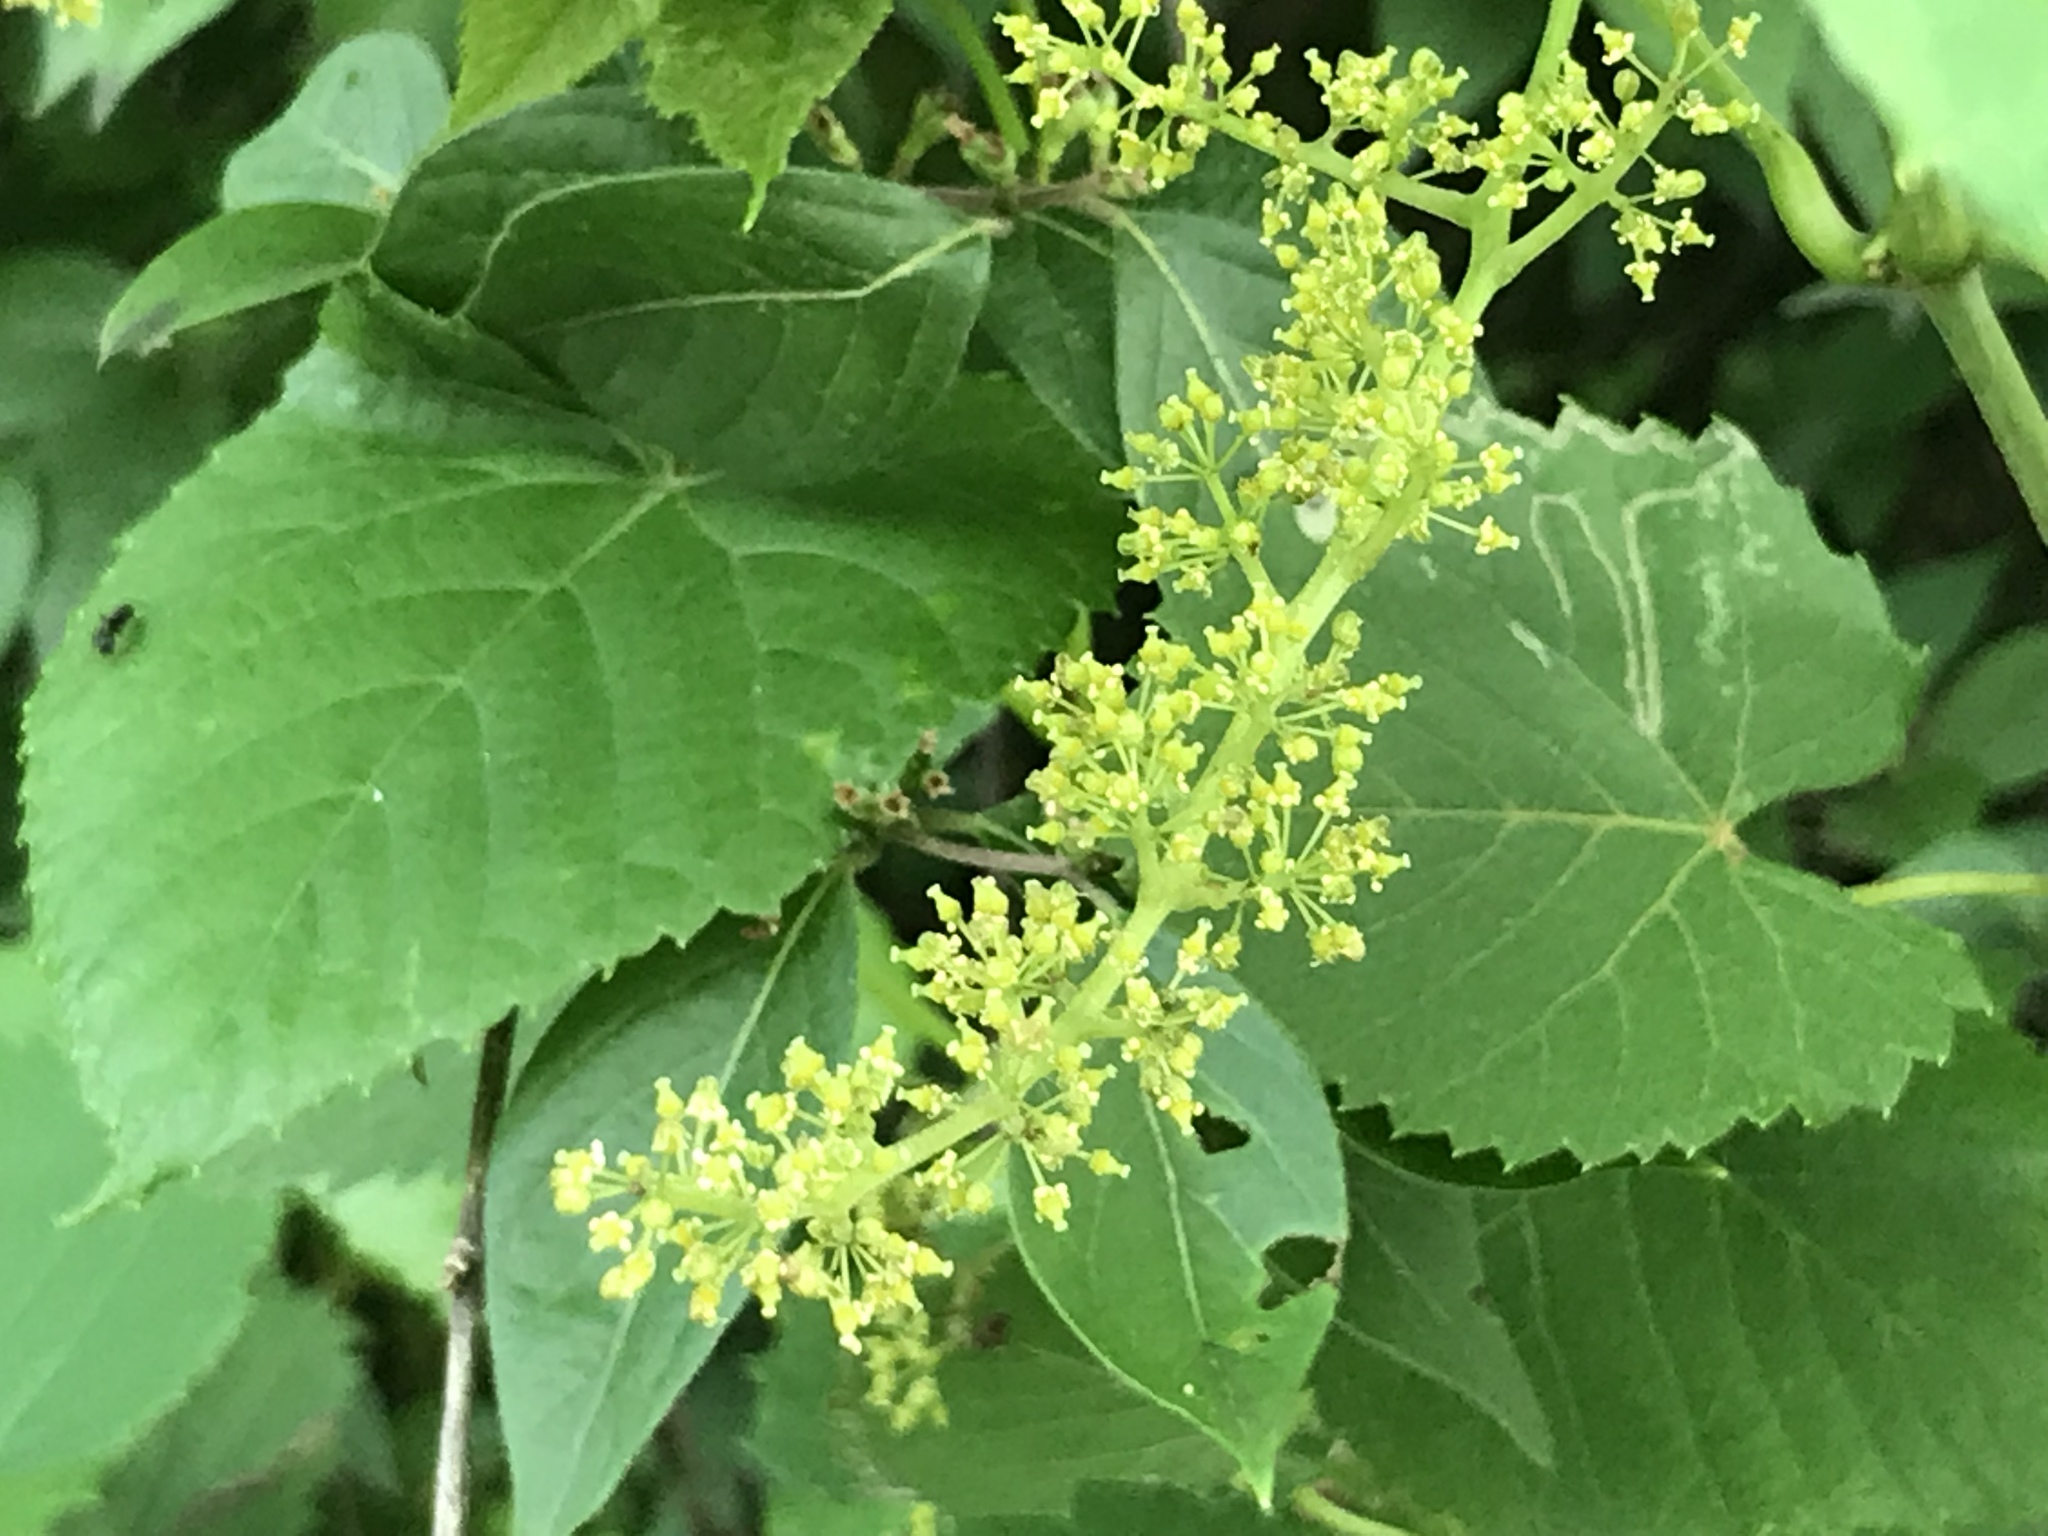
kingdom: Plantae
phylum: Tracheophyta
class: Magnoliopsida
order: Vitales
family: Vitaceae
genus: Vitis
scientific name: Vitis vulpina
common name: Frost grape
